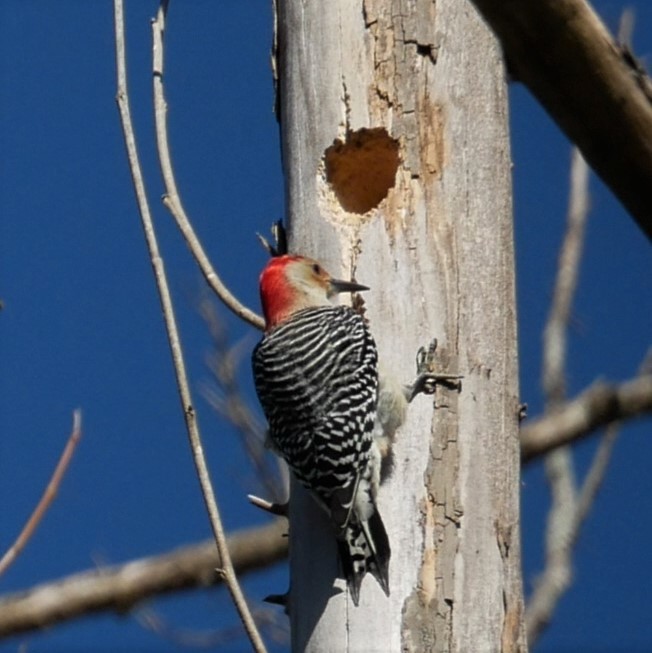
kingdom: Animalia
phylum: Chordata
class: Aves
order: Piciformes
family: Picidae
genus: Melanerpes
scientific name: Melanerpes carolinus
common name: Red-bellied woodpecker
